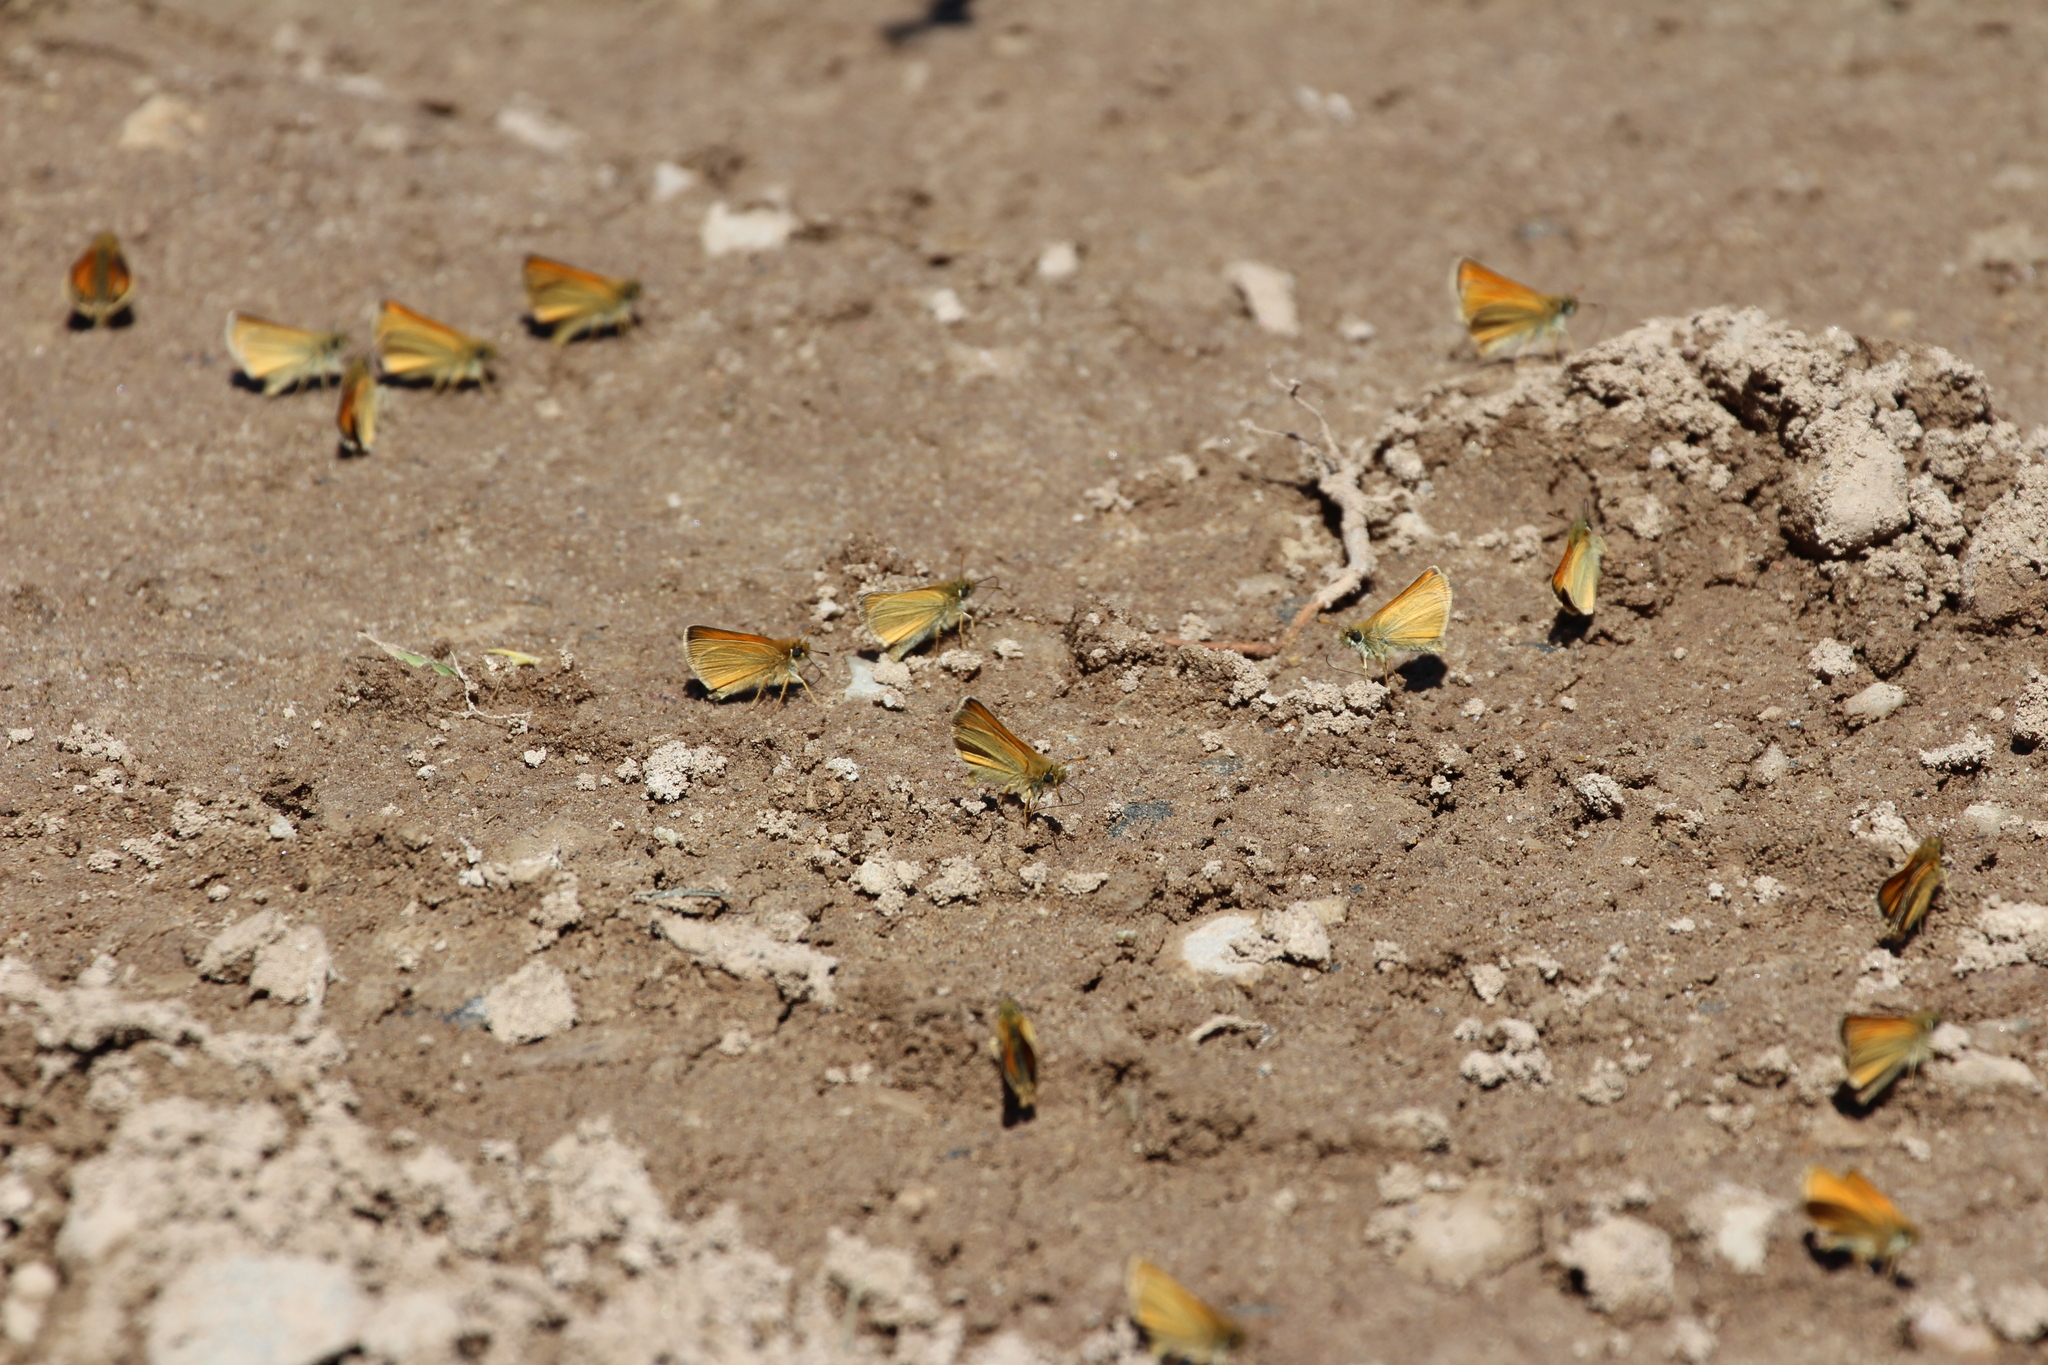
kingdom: Animalia
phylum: Arthropoda
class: Insecta
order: Lepidoptera
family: Hesperiidae
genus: Thymelicus
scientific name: Thymelicus lineola
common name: Essex skipper
